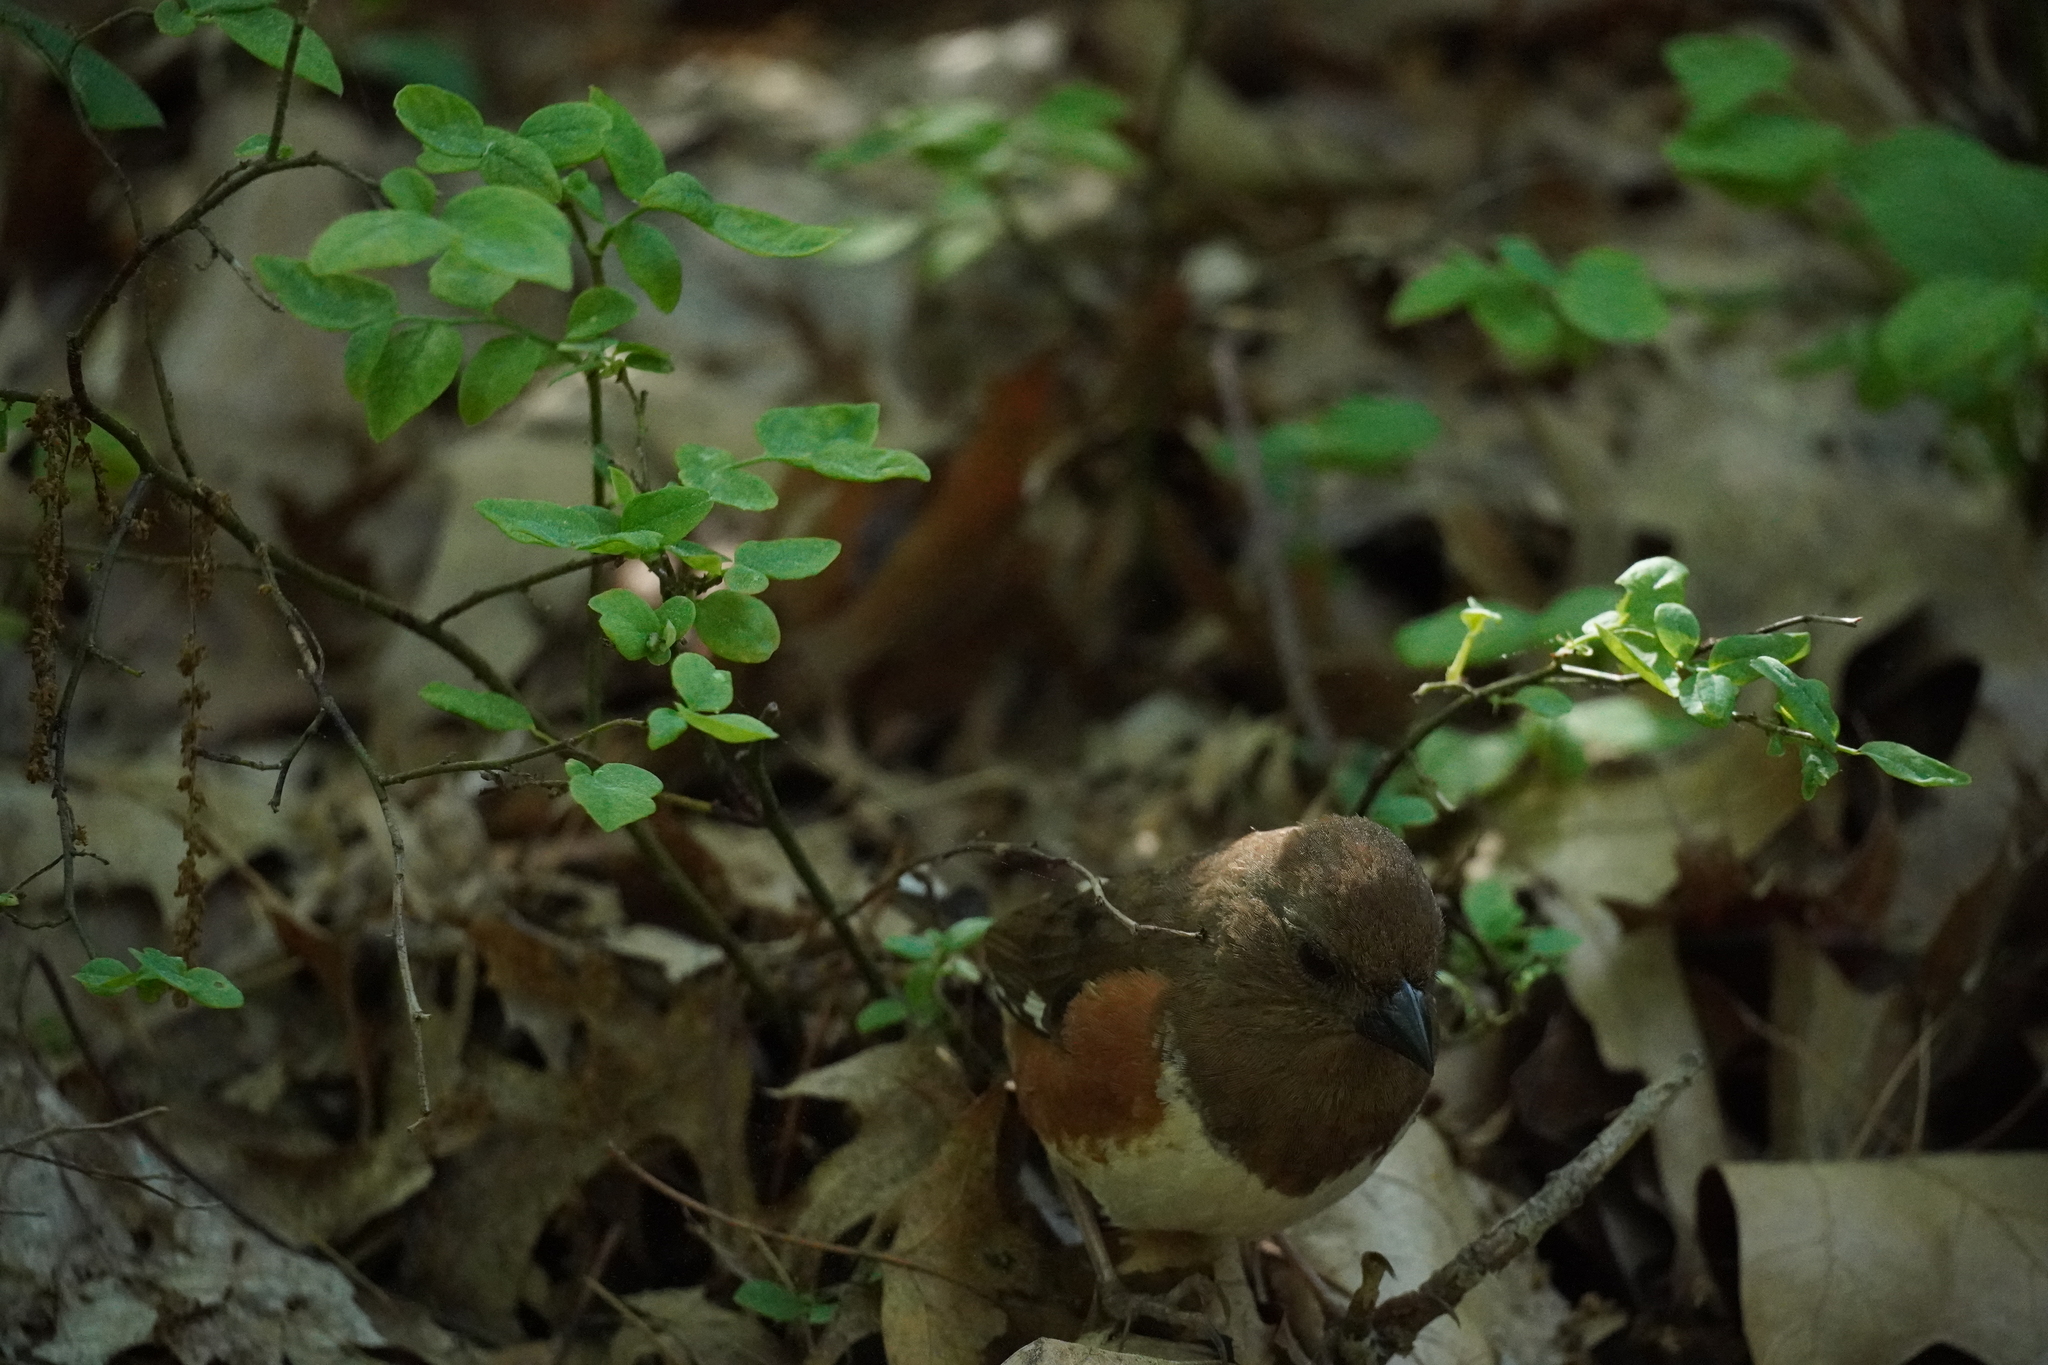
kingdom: Animalia
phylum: Chordata
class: Aves
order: Passeriformes
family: Passerellidae
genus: Pipilo
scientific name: Pipilo erythrophthalmus
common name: Eastern towhee
